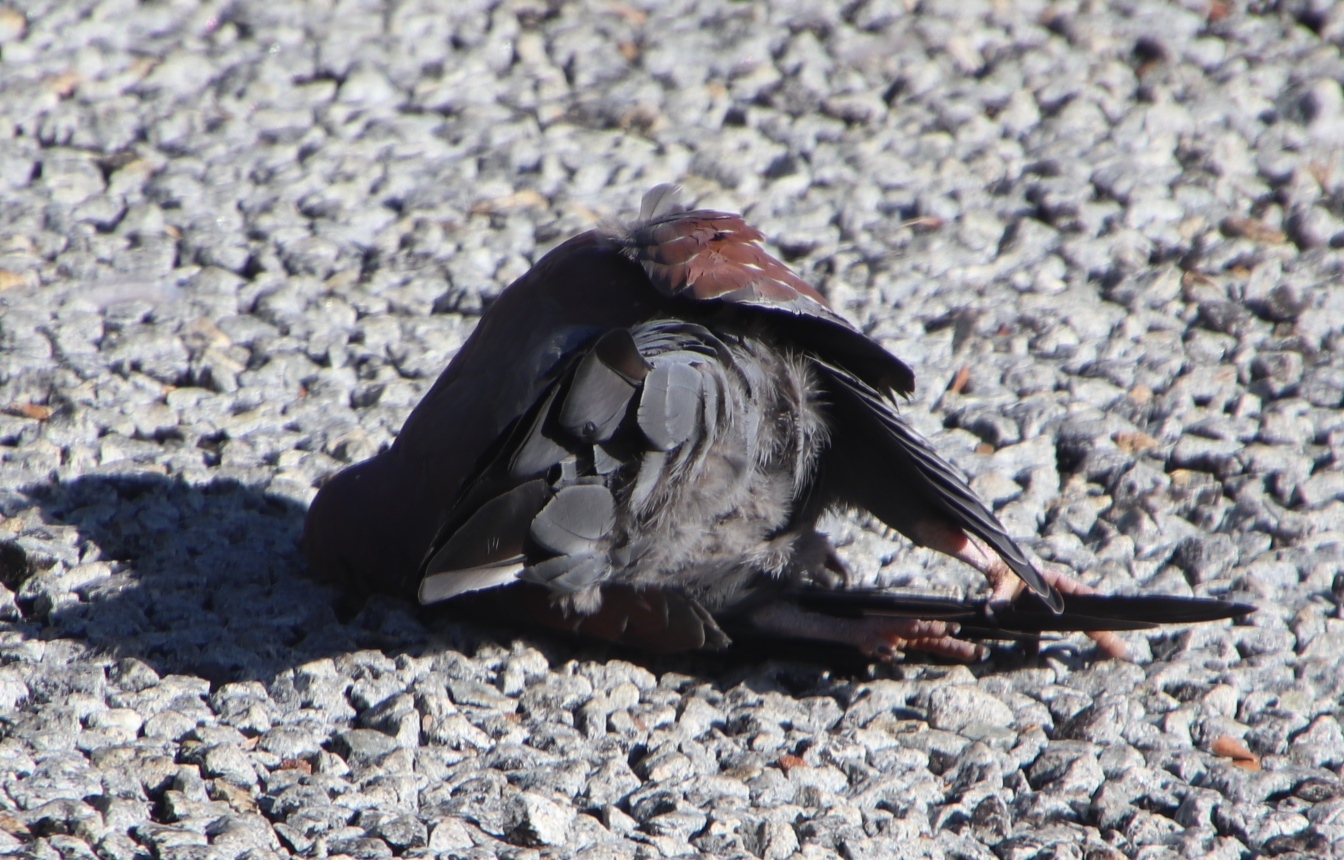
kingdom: Animalia
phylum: Chordata
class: Aves
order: Columbiformes
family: Columbidae
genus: Columba
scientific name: Columba guinea
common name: Speckled pigeon
